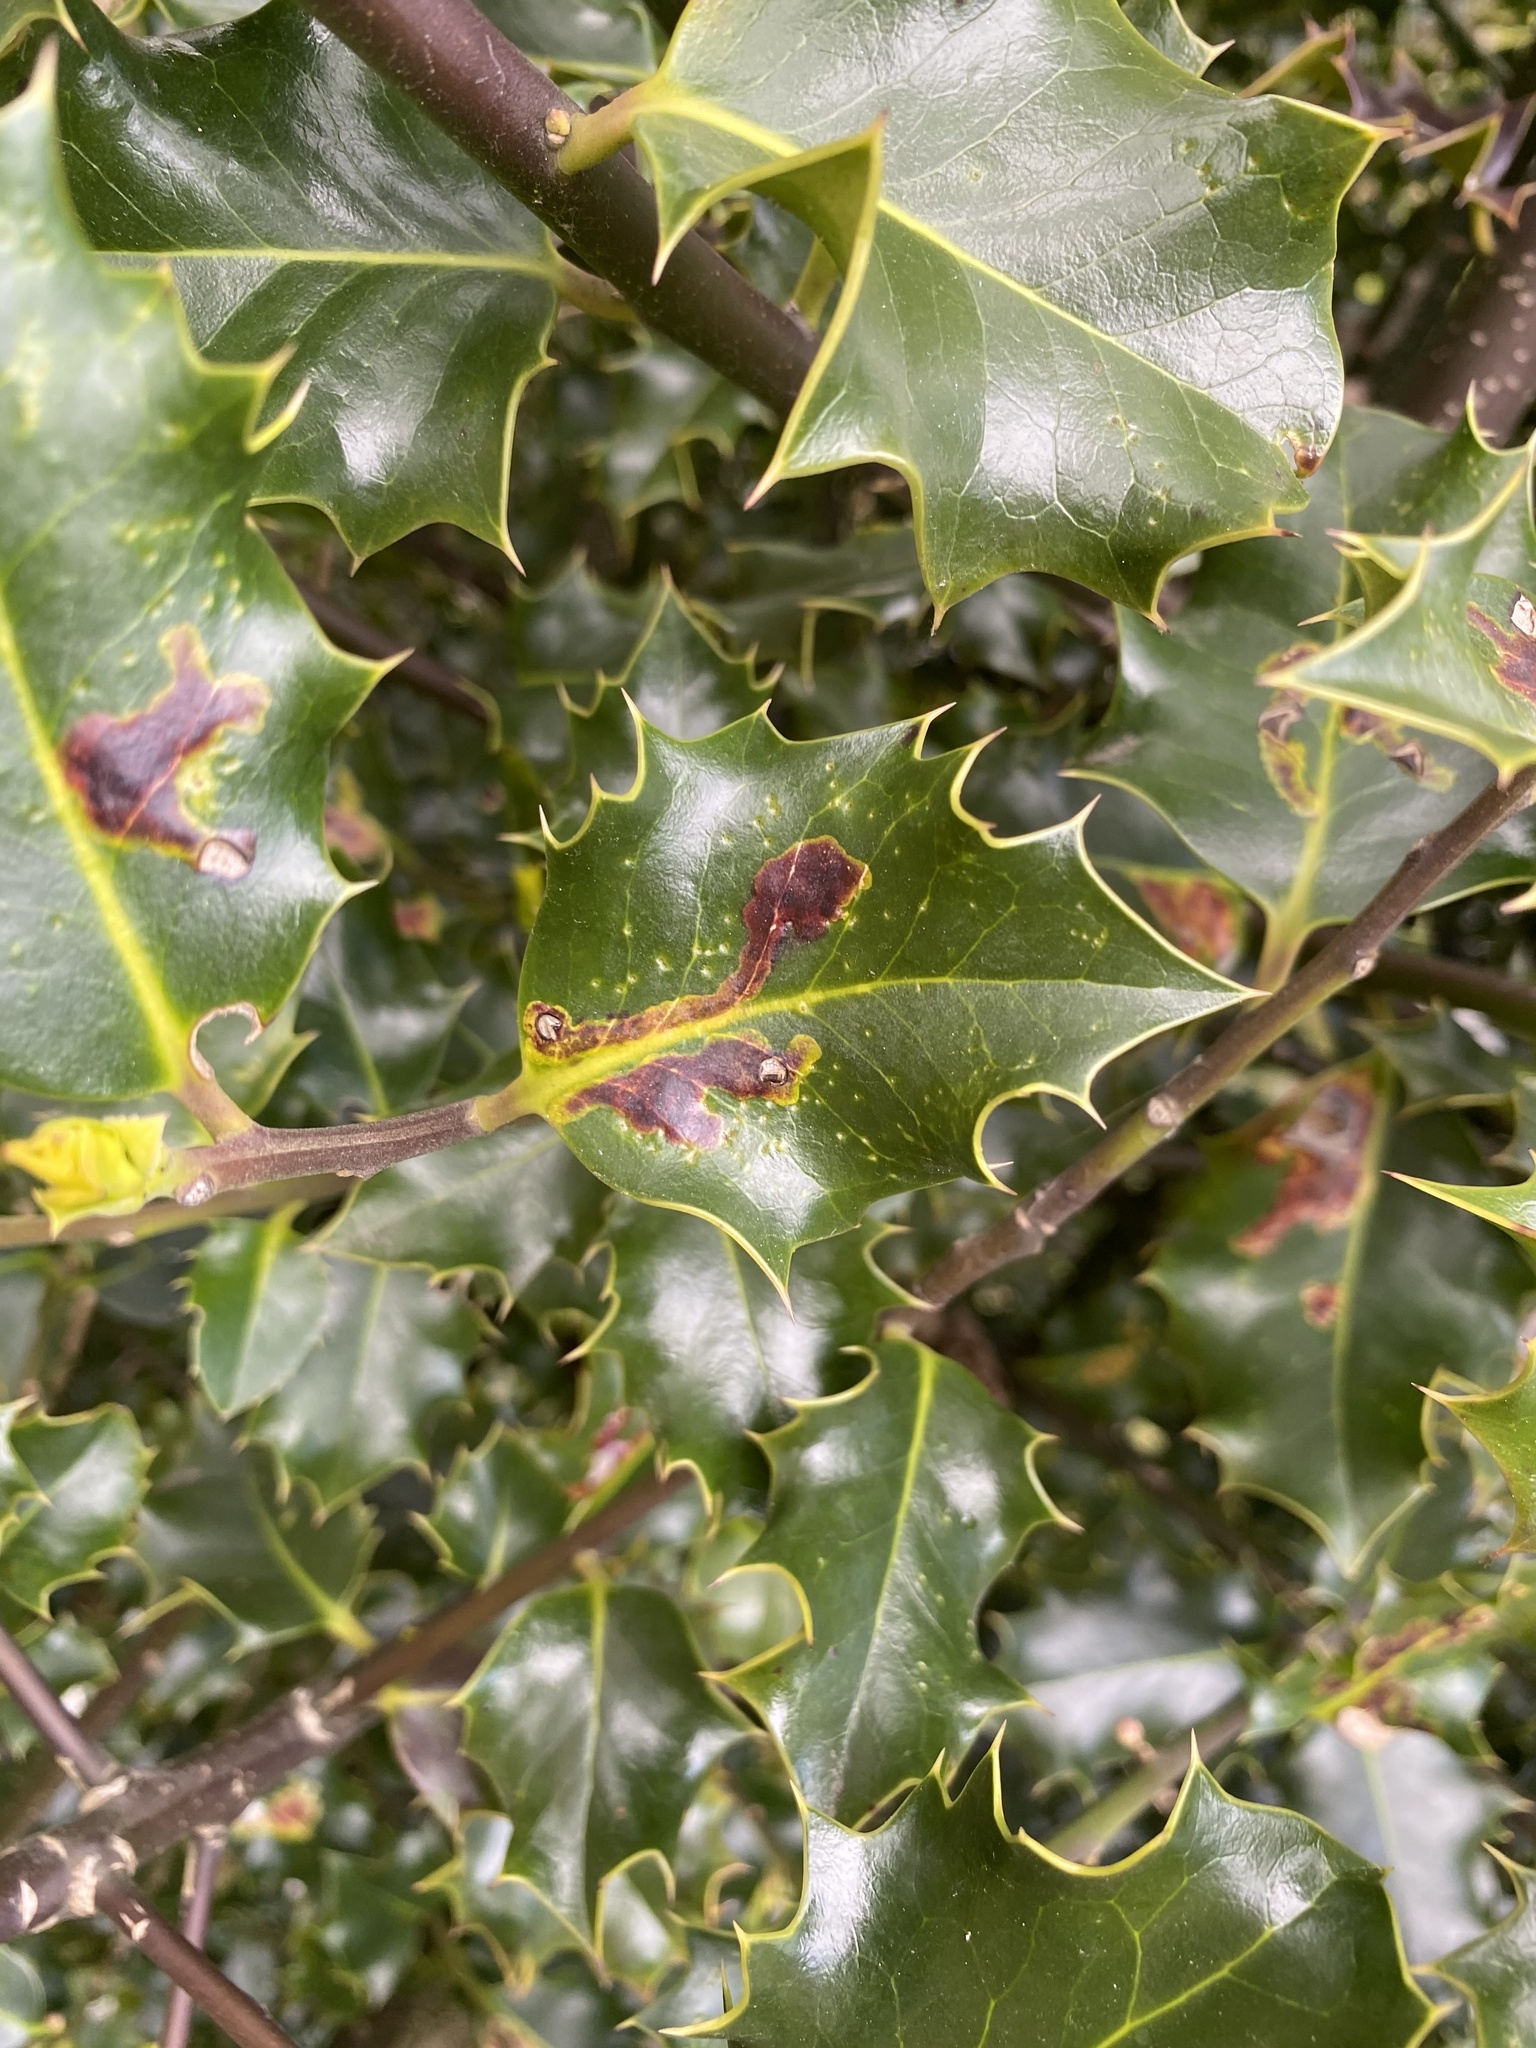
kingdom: Plantae
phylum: Tracheophyta
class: Magnoliopsida
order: Aquifoliales
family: Aquifoliaceae
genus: Ilex
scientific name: Ilex aquifolium
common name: English holly
